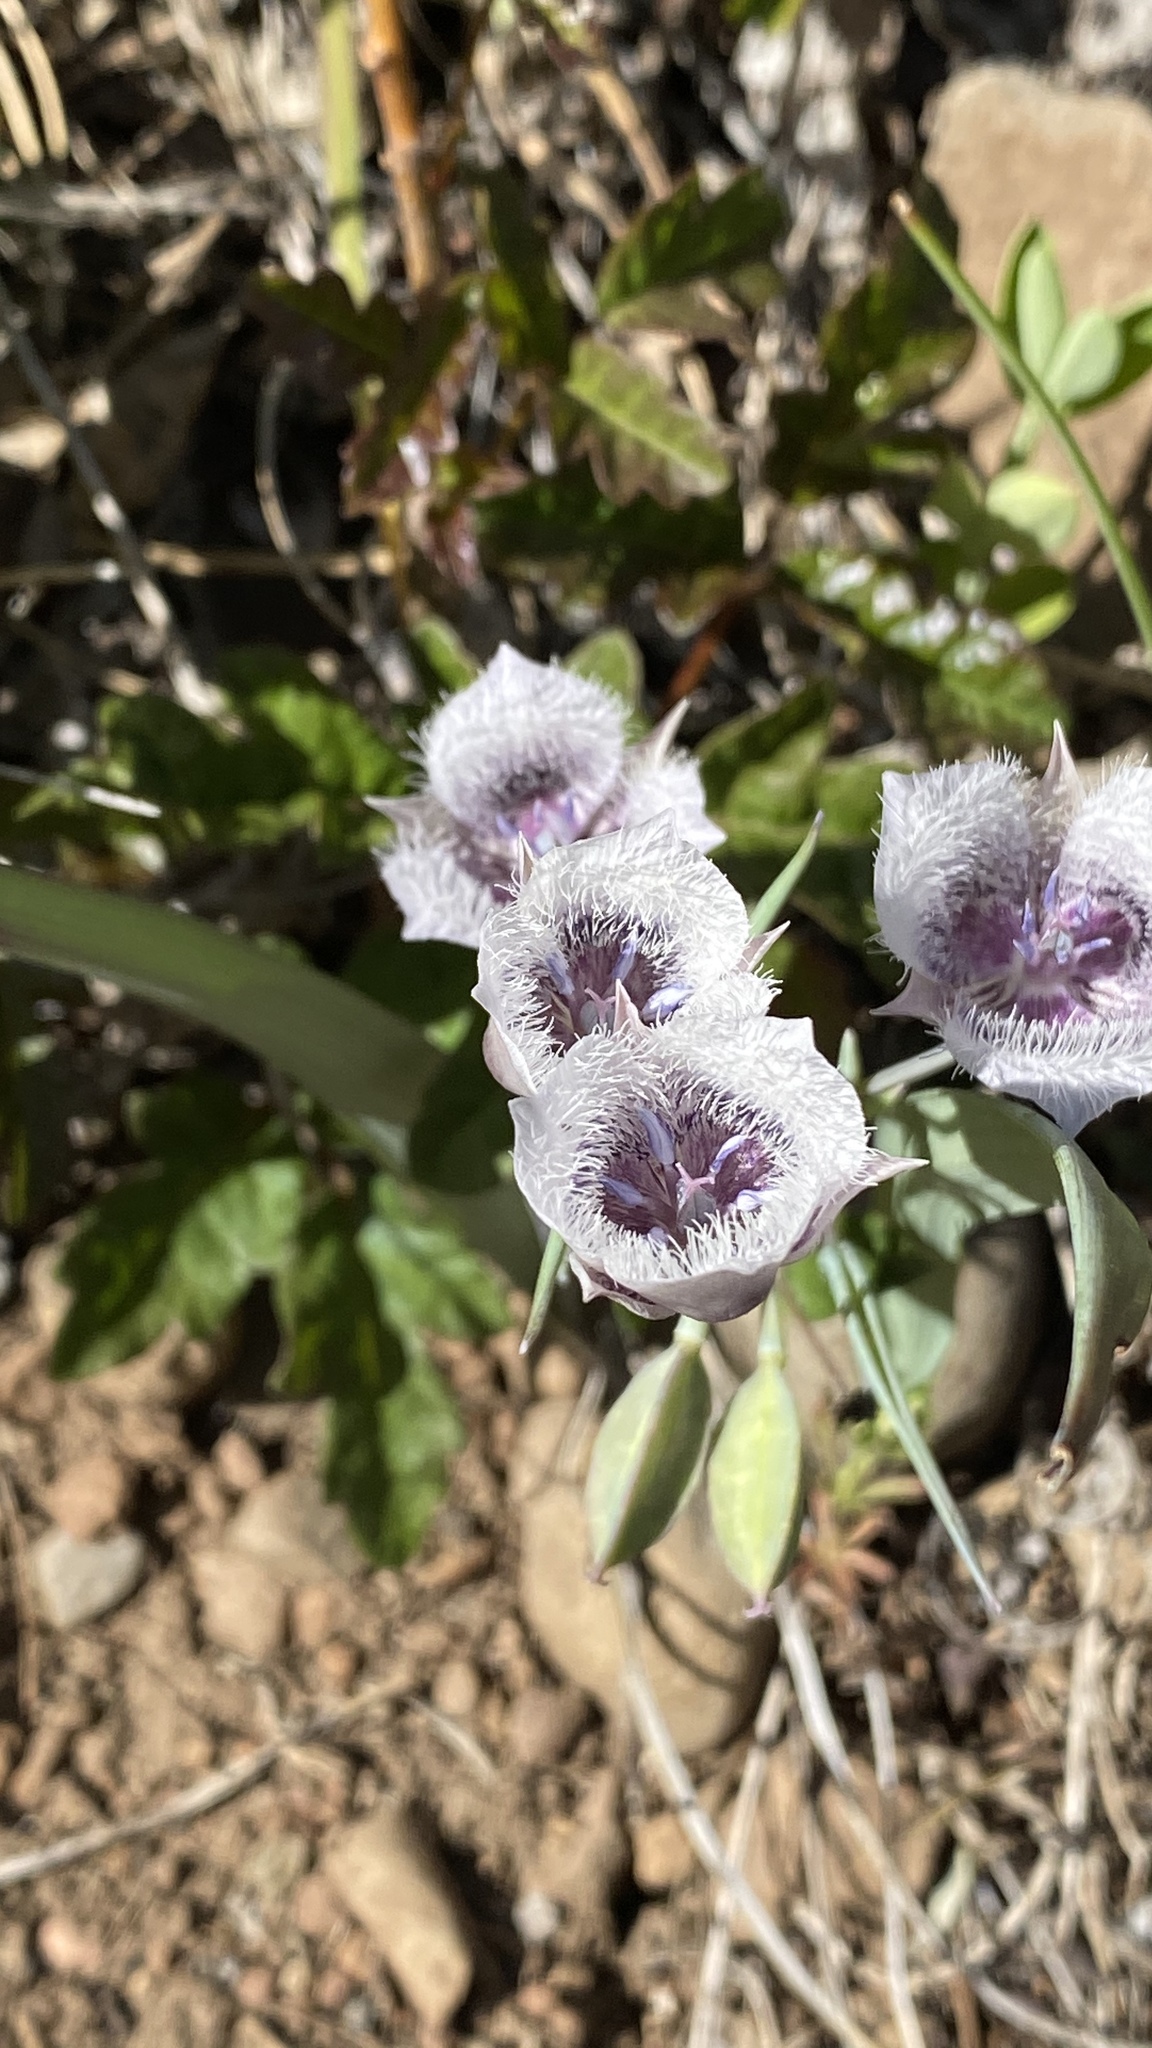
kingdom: Plantae
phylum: Tracheophyta
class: Liliopsida
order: Liliales
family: Liliaceae
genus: Calochortus
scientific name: Calochortus tolmiei
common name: Pussy-ears
